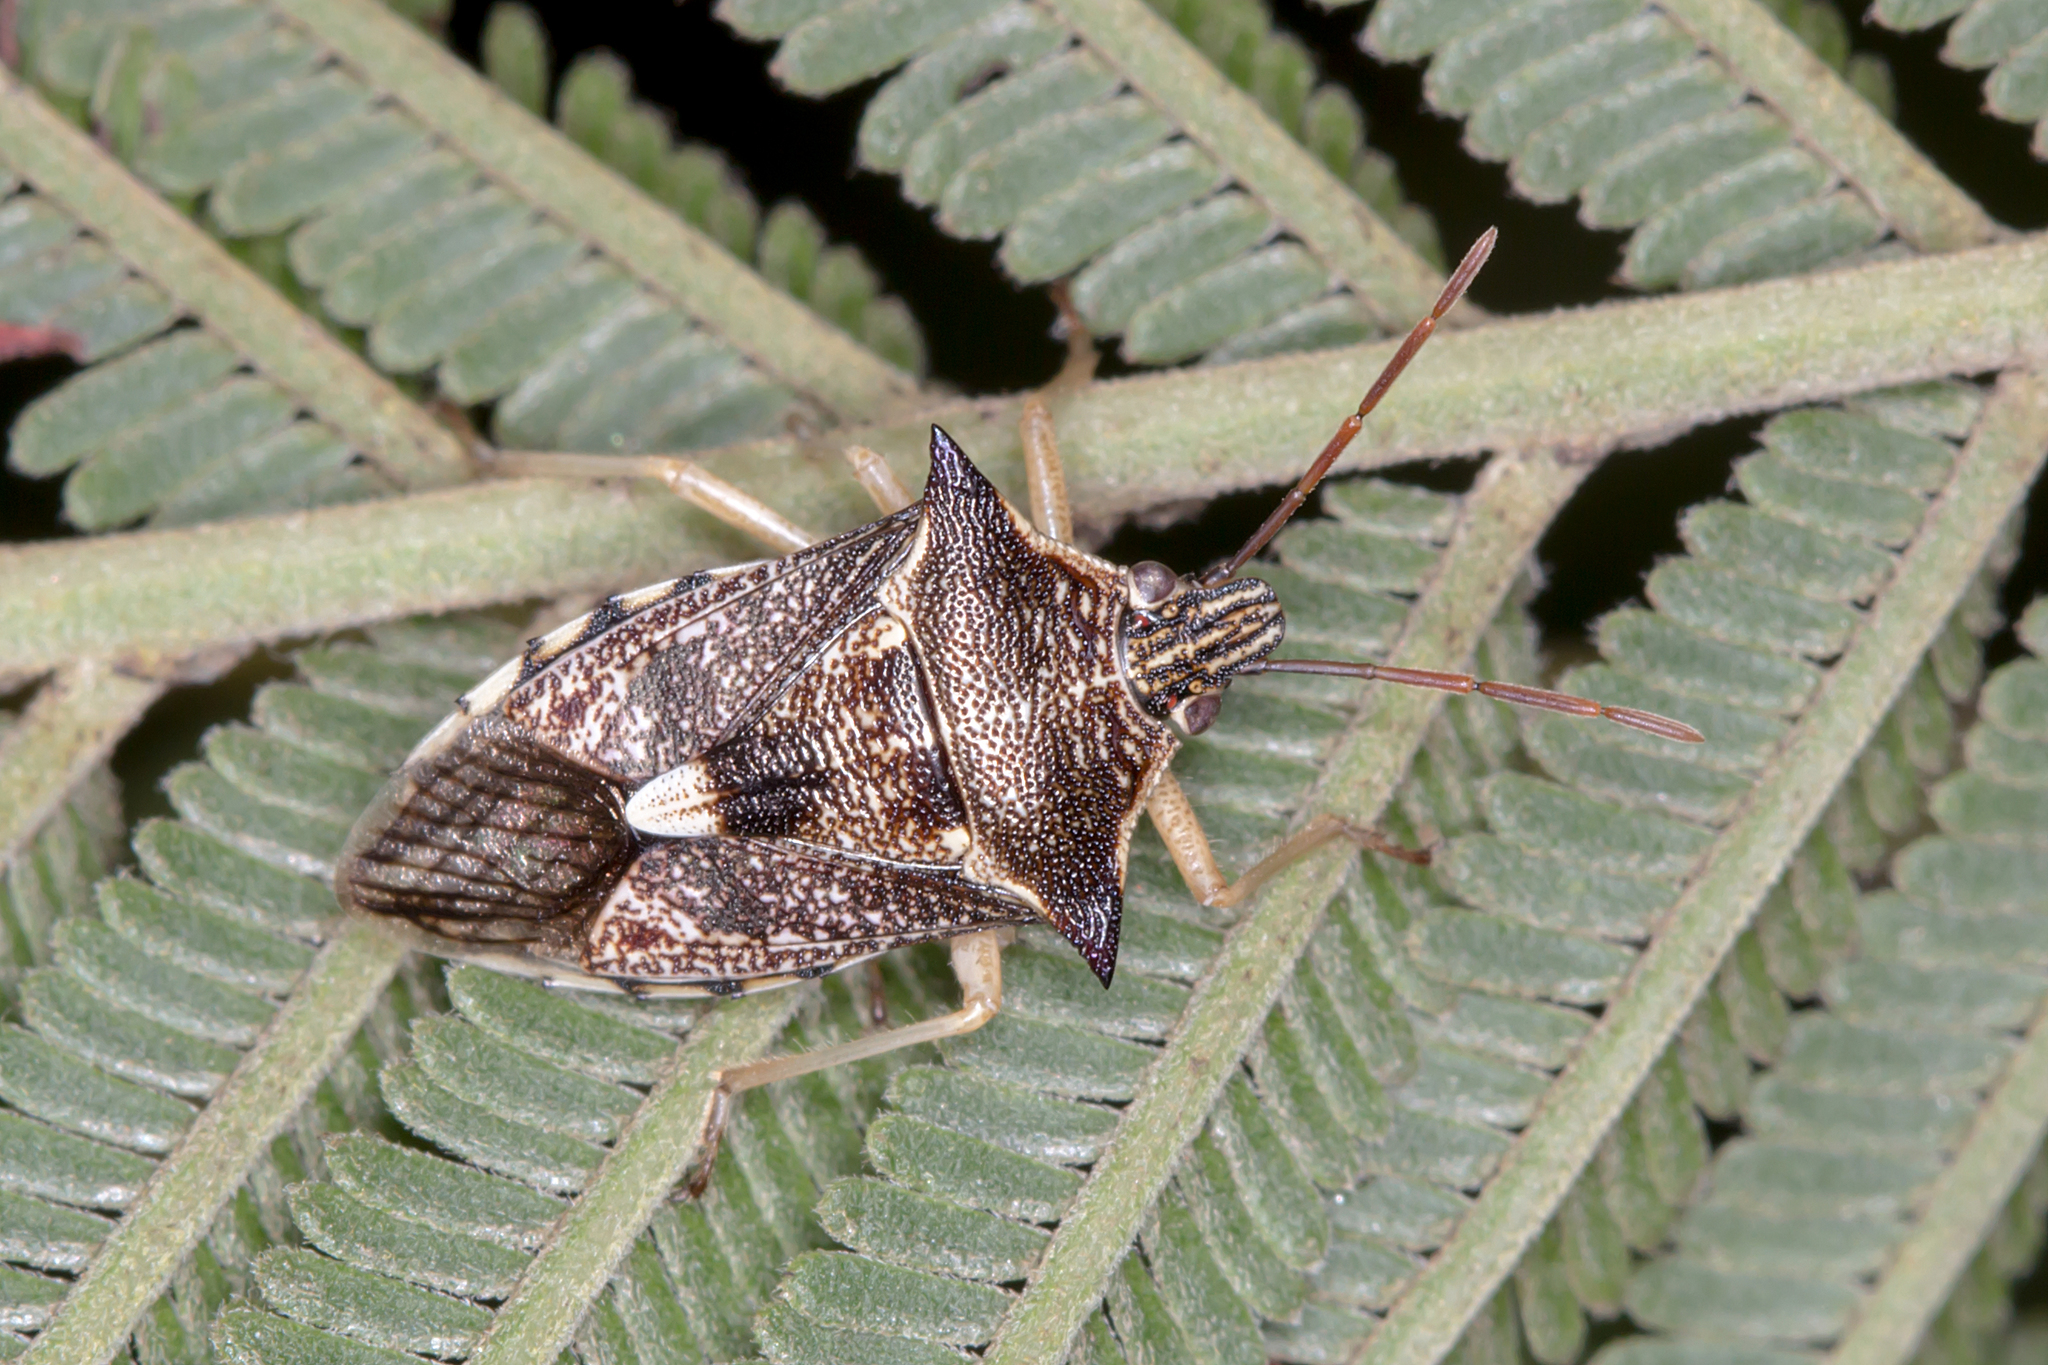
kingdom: Animalia
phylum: Arthropoda
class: Insecta
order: Hemiptera
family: Pentatomidae
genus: Oechalia
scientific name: Oechalia schellenbergii
